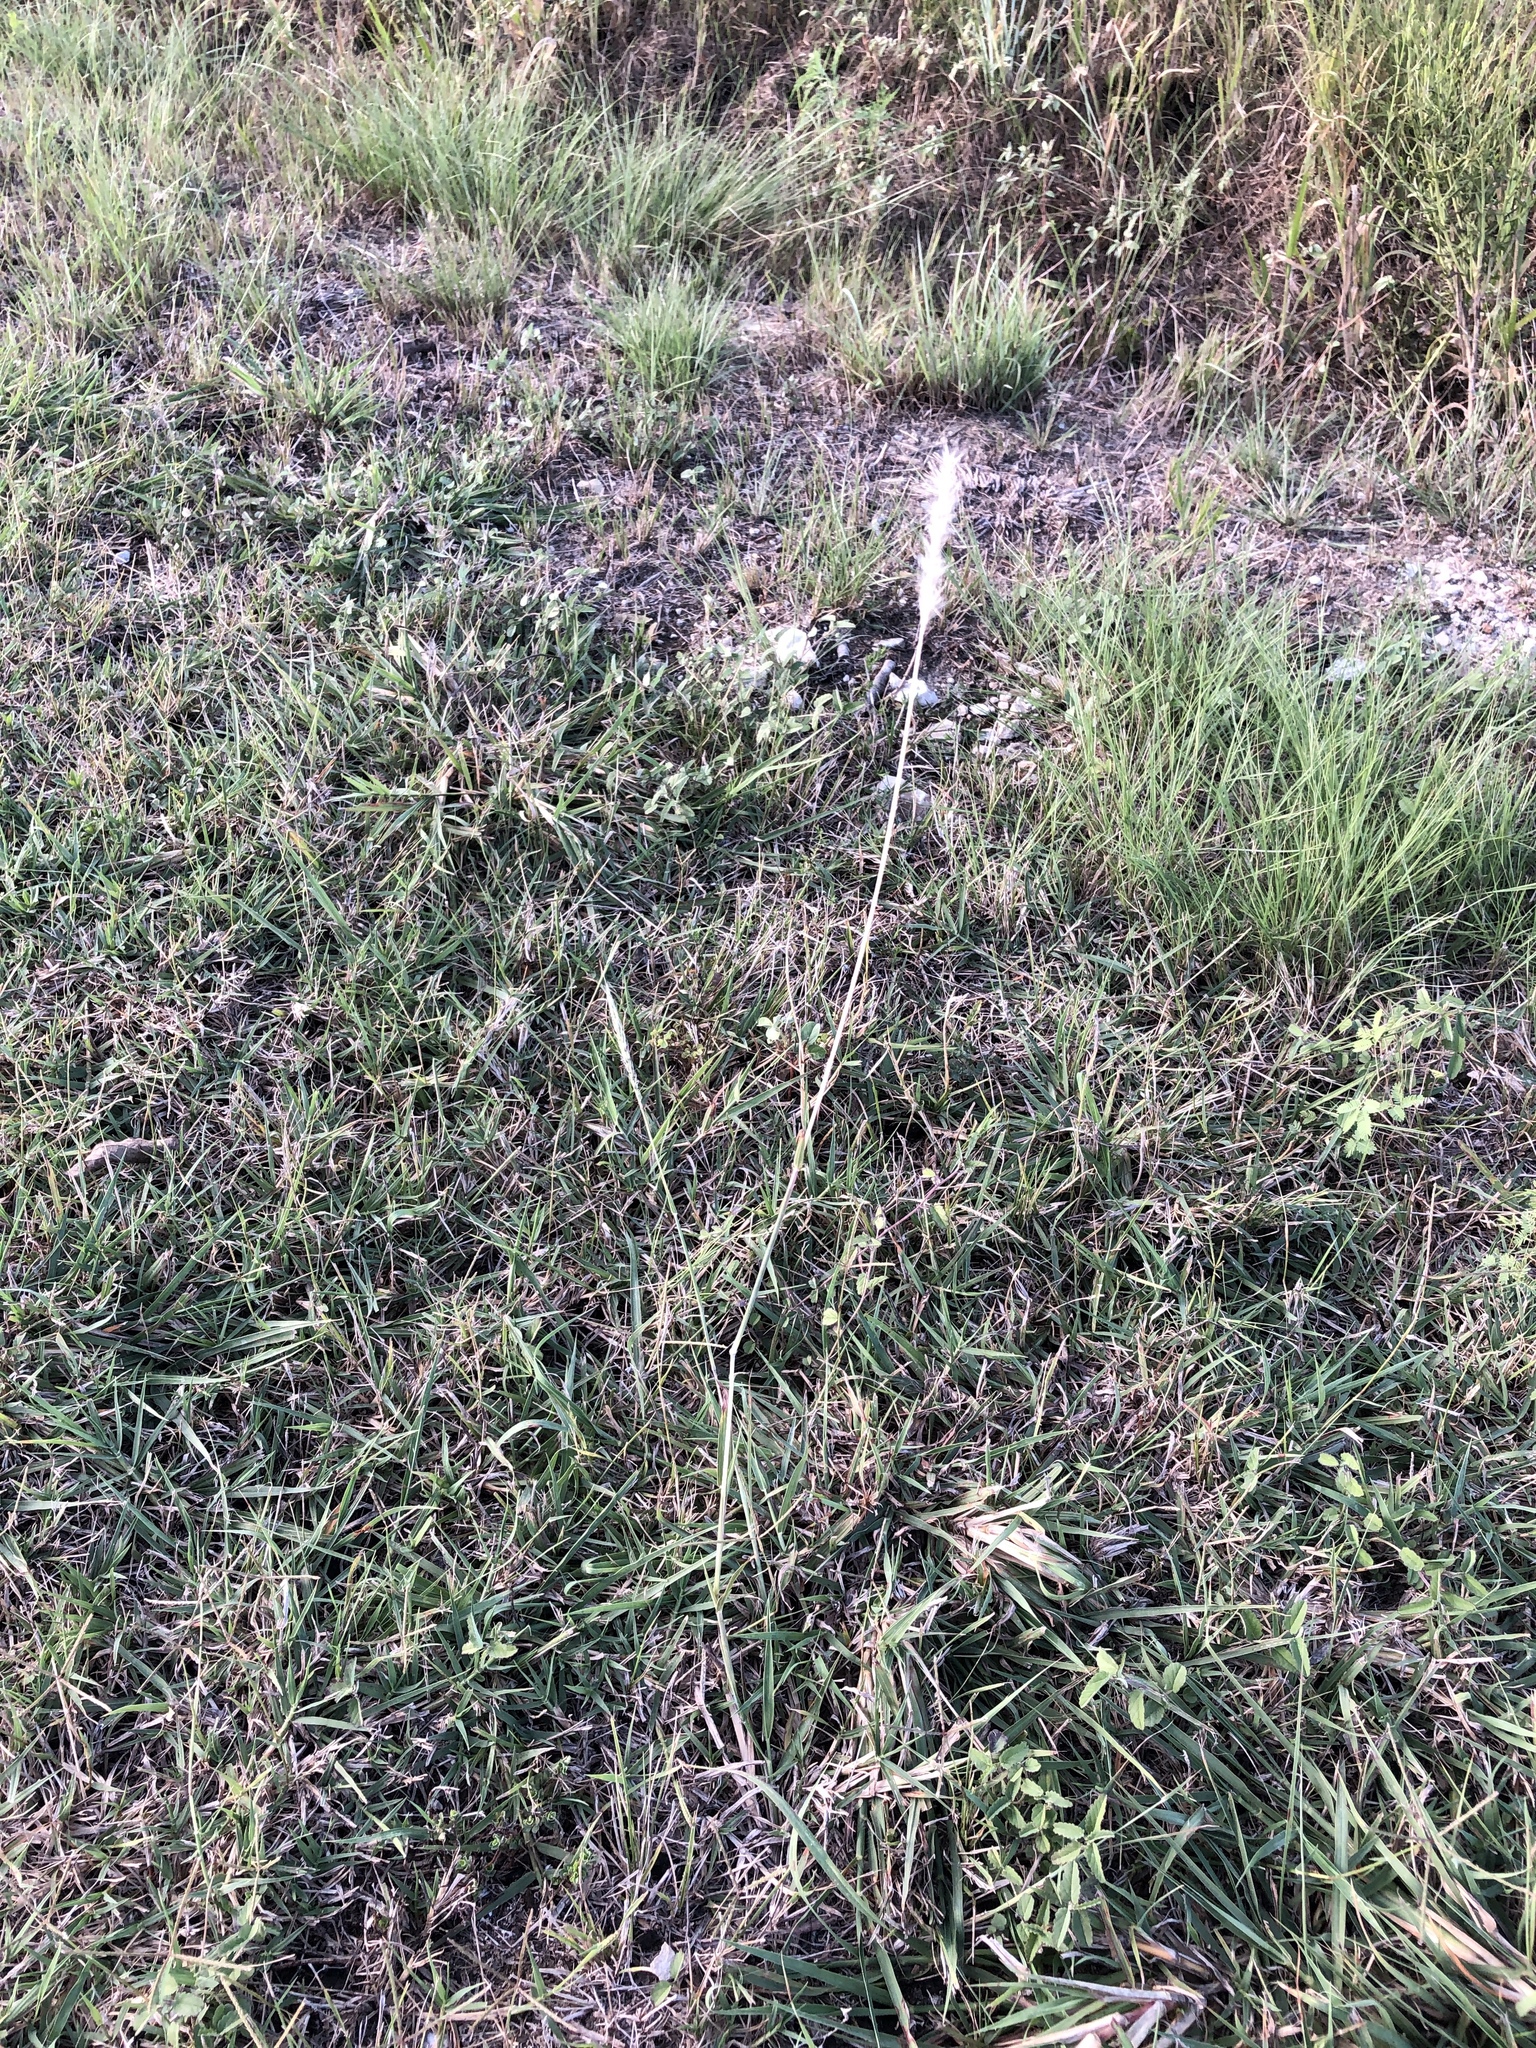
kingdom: Plantae
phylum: Tracheophyta
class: Liliopsida
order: Poales
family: Poaceae
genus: Bothriochloa
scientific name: Bothriochloa torreyana
